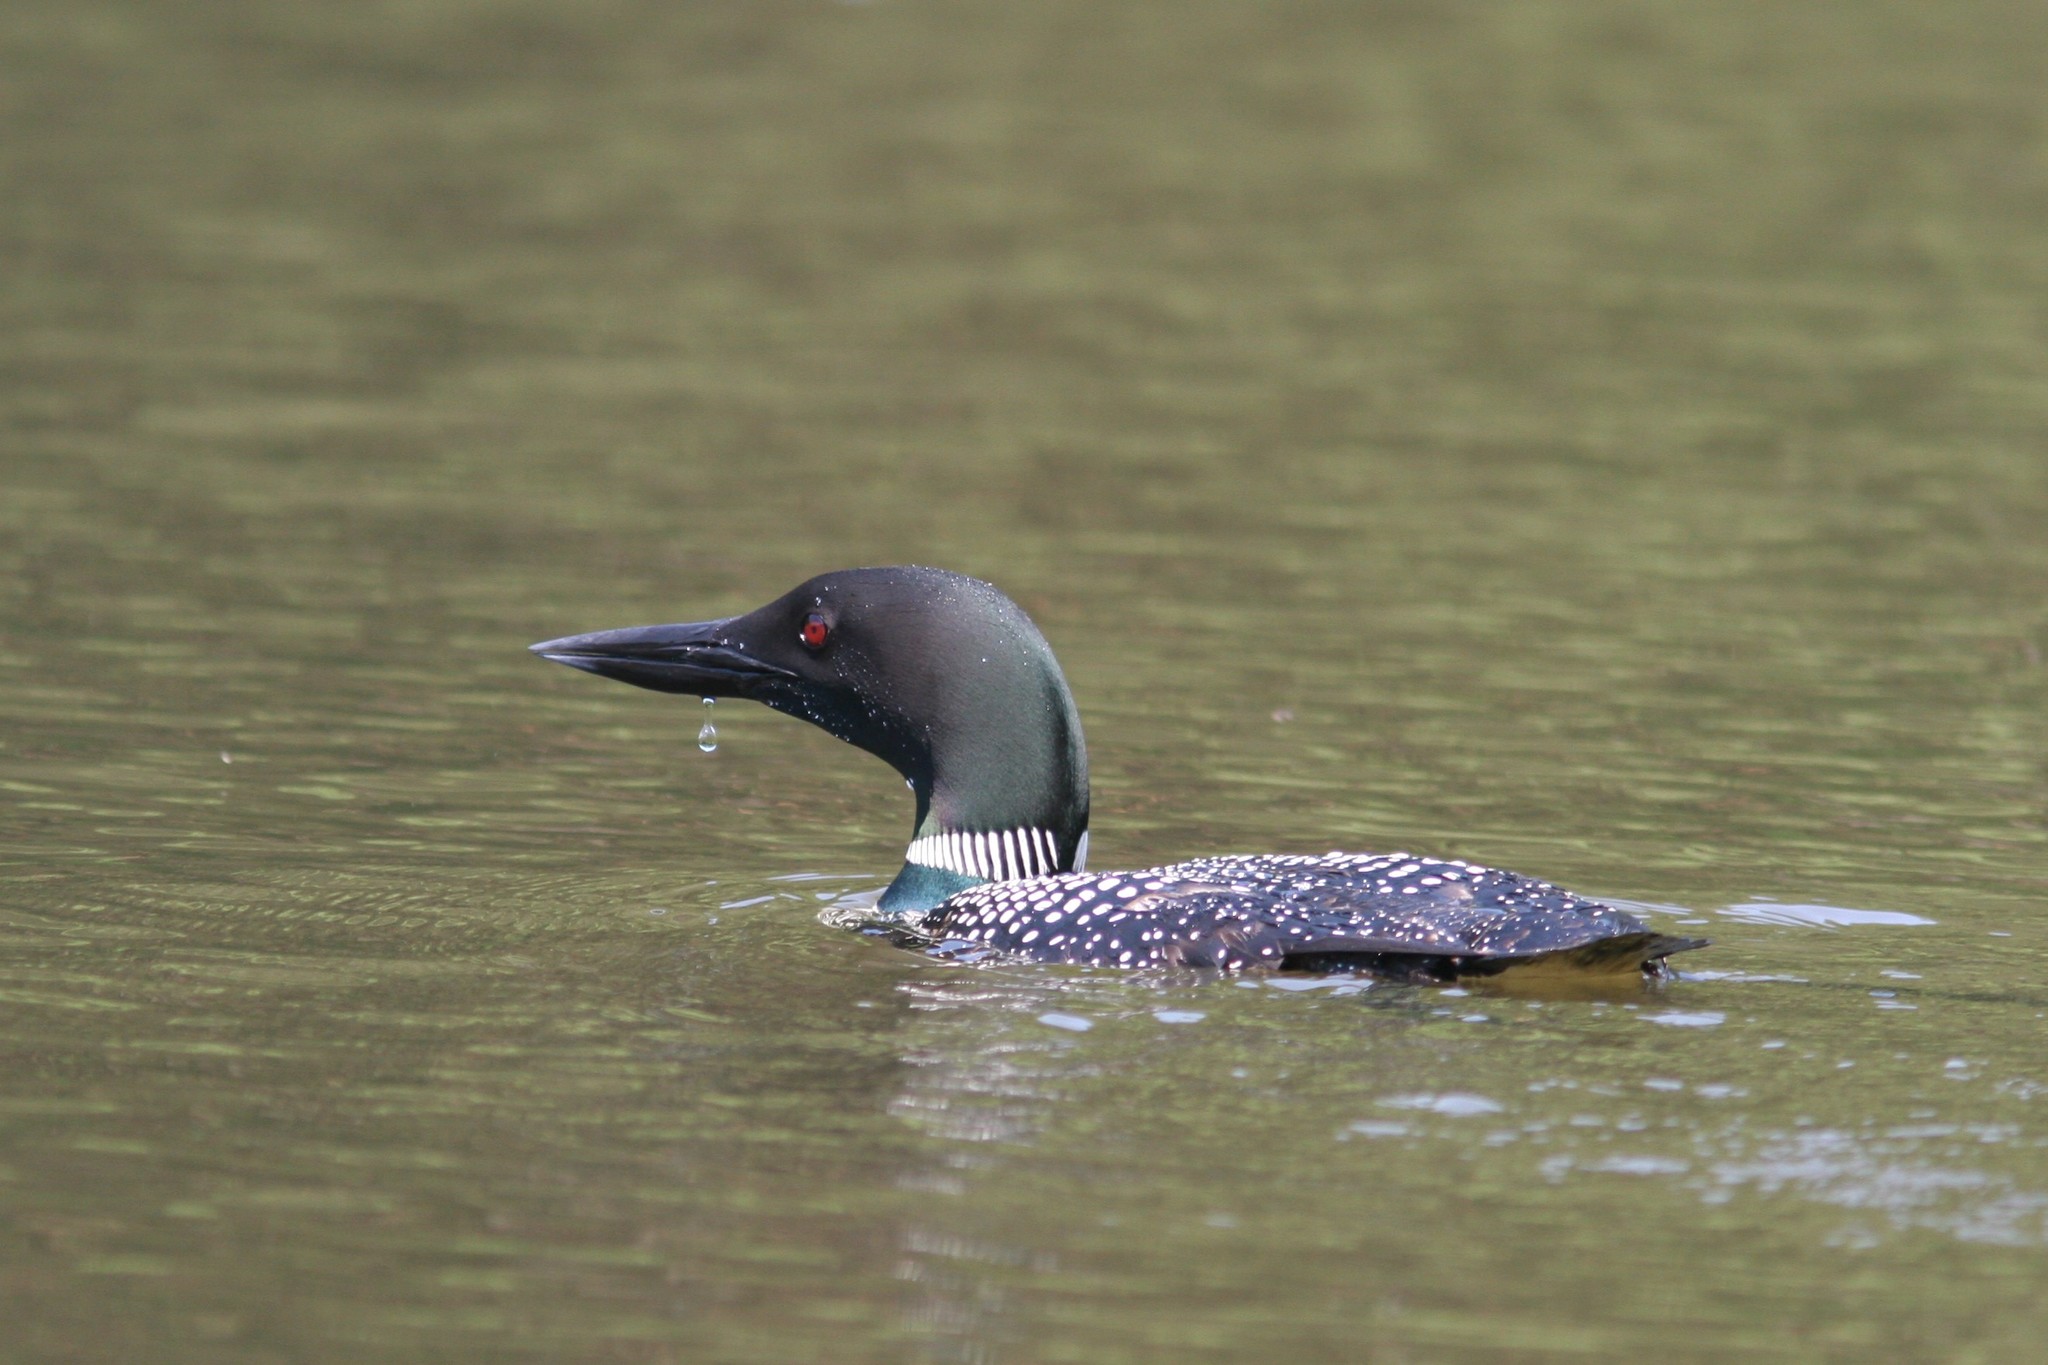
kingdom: Animalia
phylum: Chordata
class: Aves
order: Gaviiformes
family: Gaviidae
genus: Gavia
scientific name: Gavia immer
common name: Common loon
